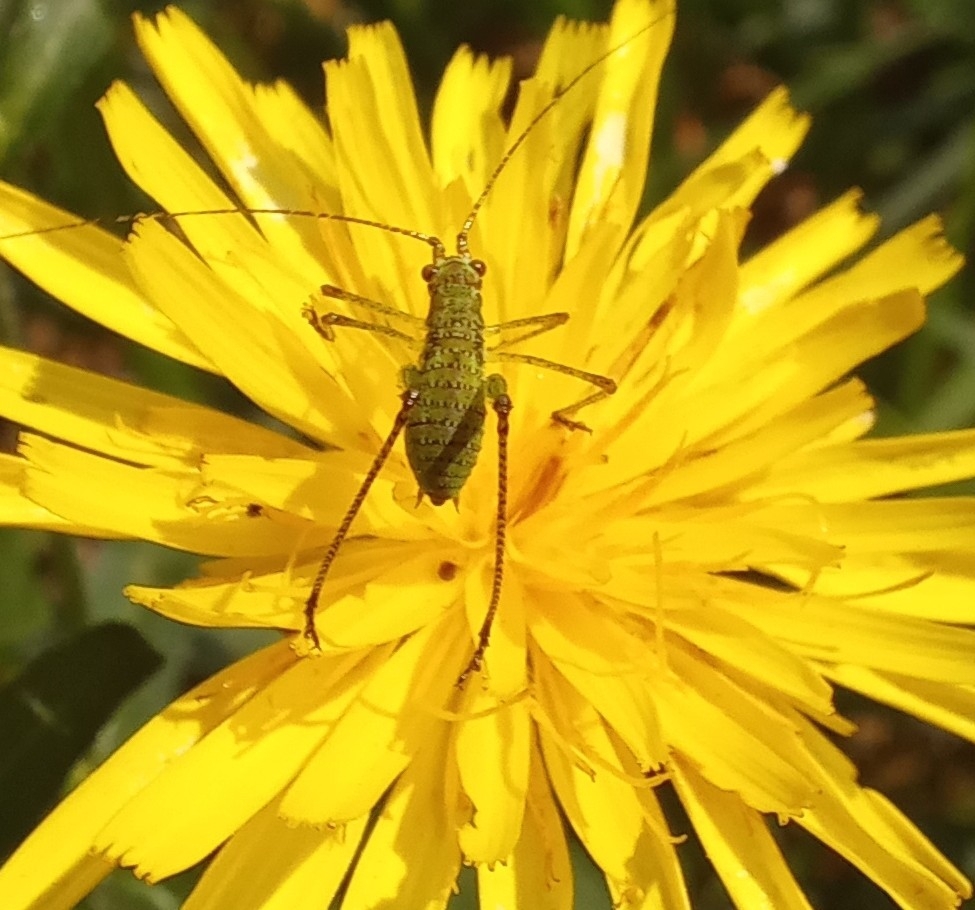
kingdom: Animalia
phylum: Arthropoda
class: Insecta
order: Orthoptera
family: Tettigoniidae
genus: Phaneroptera
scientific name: Phaneroptera nana
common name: Southern sickle bush-cricket
